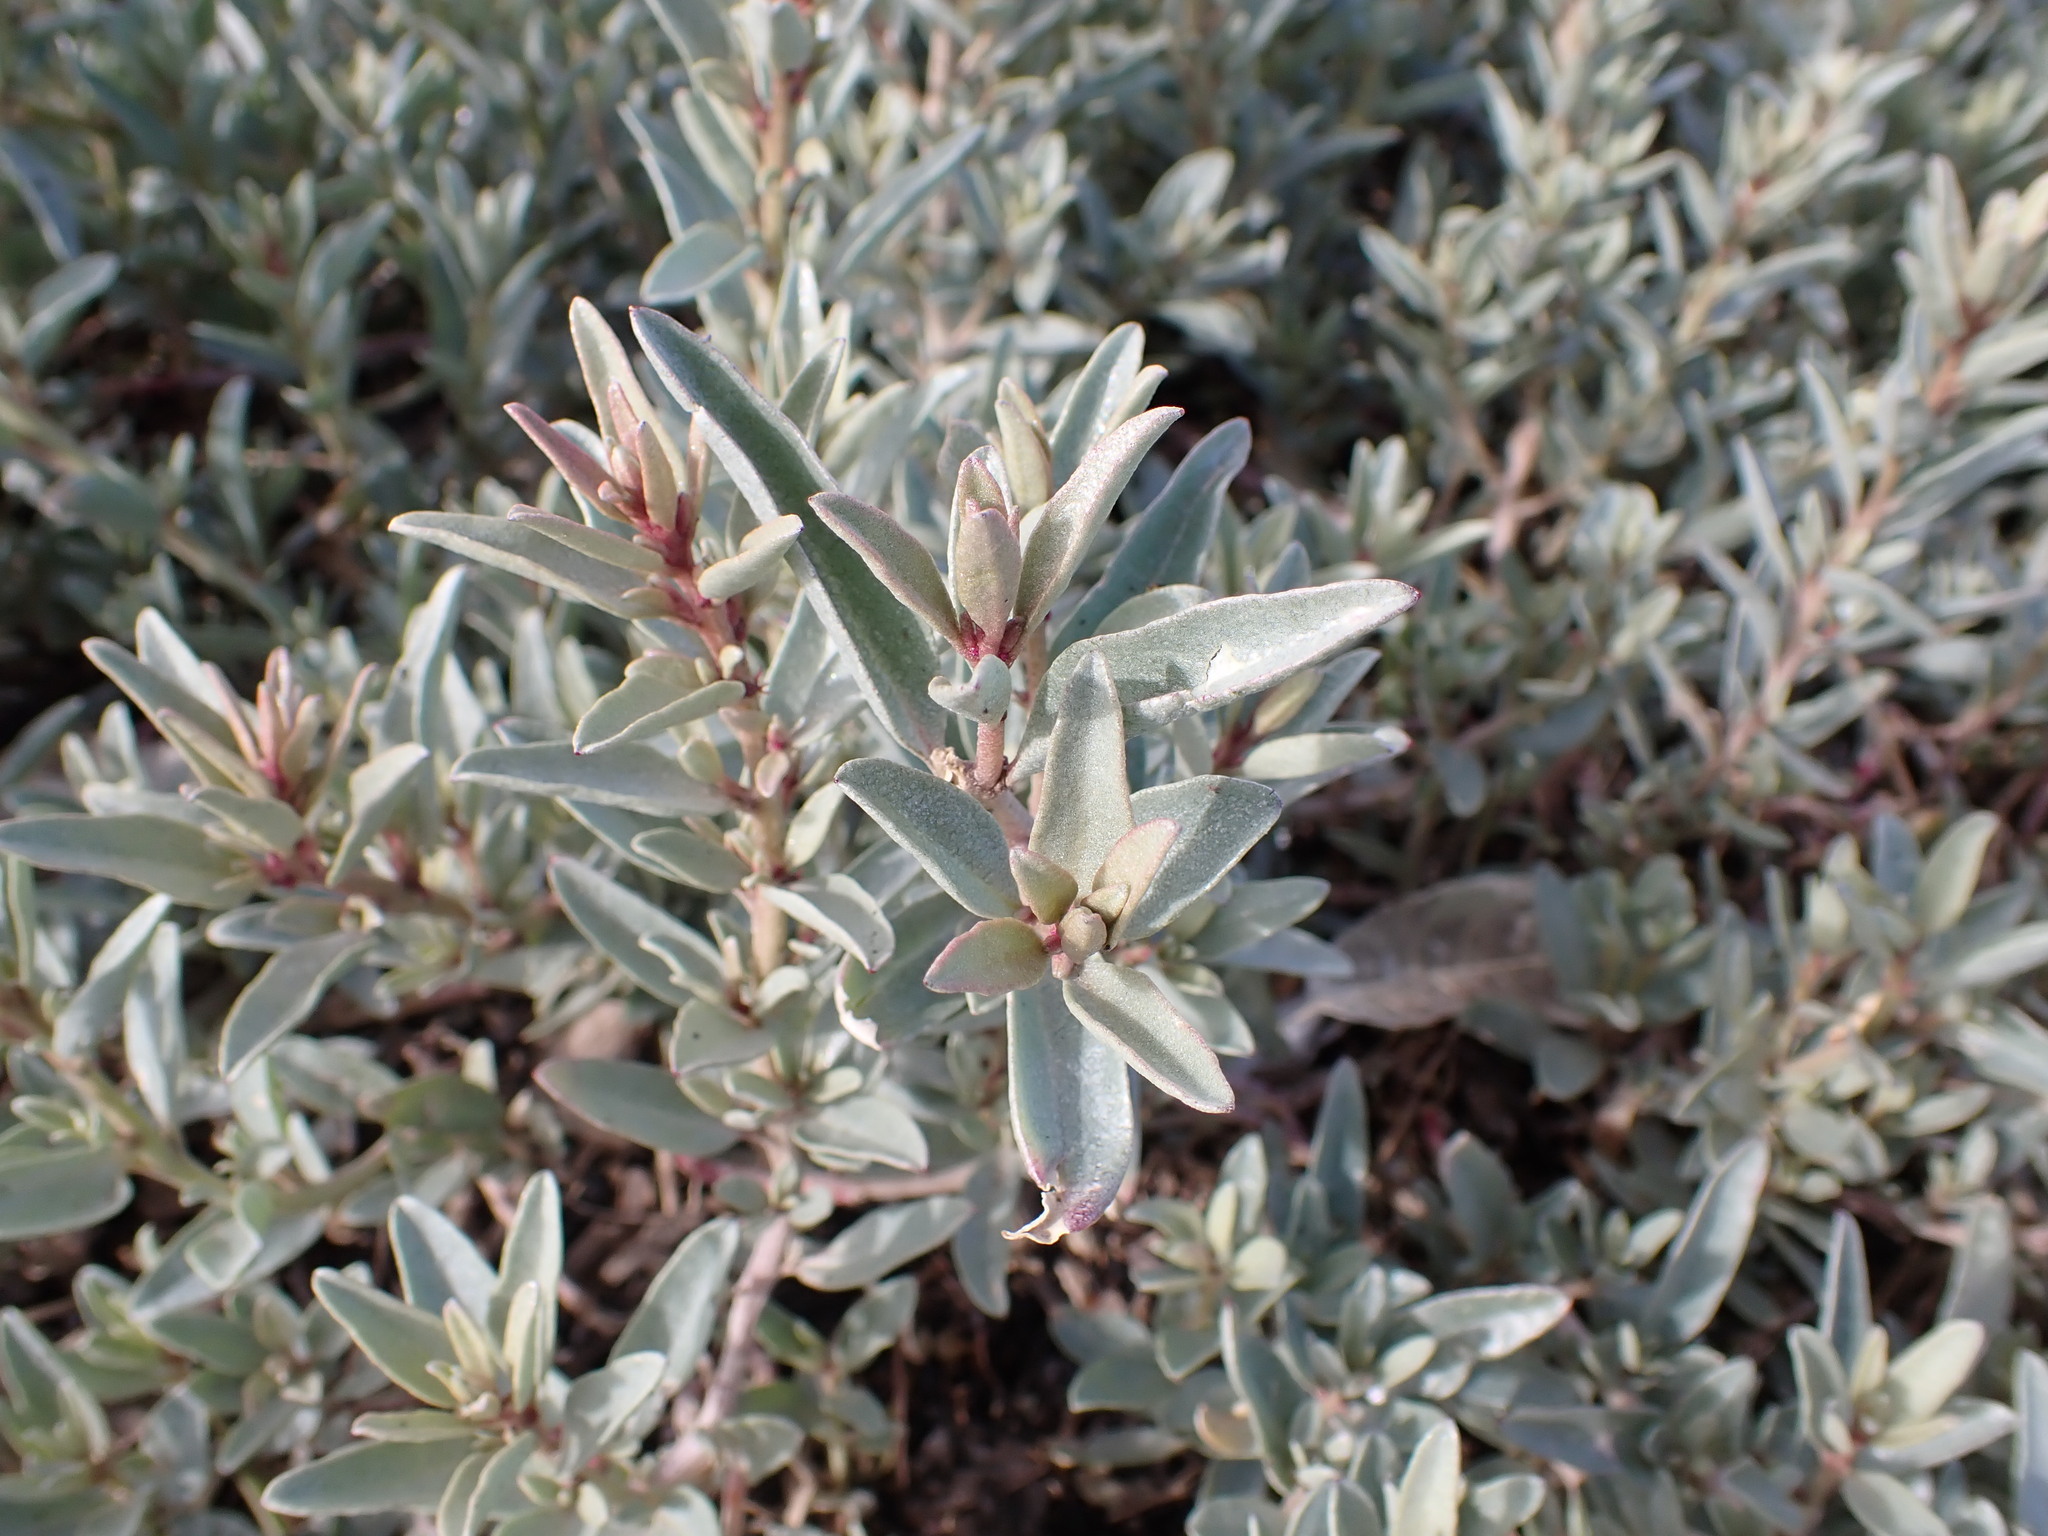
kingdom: Plantae
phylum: Tracheophyta
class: Magnoliopsida
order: Caryophyllales
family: Amaranthaceae
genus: Atriplex
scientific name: Atriplex cinerea
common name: Grey saltbush
